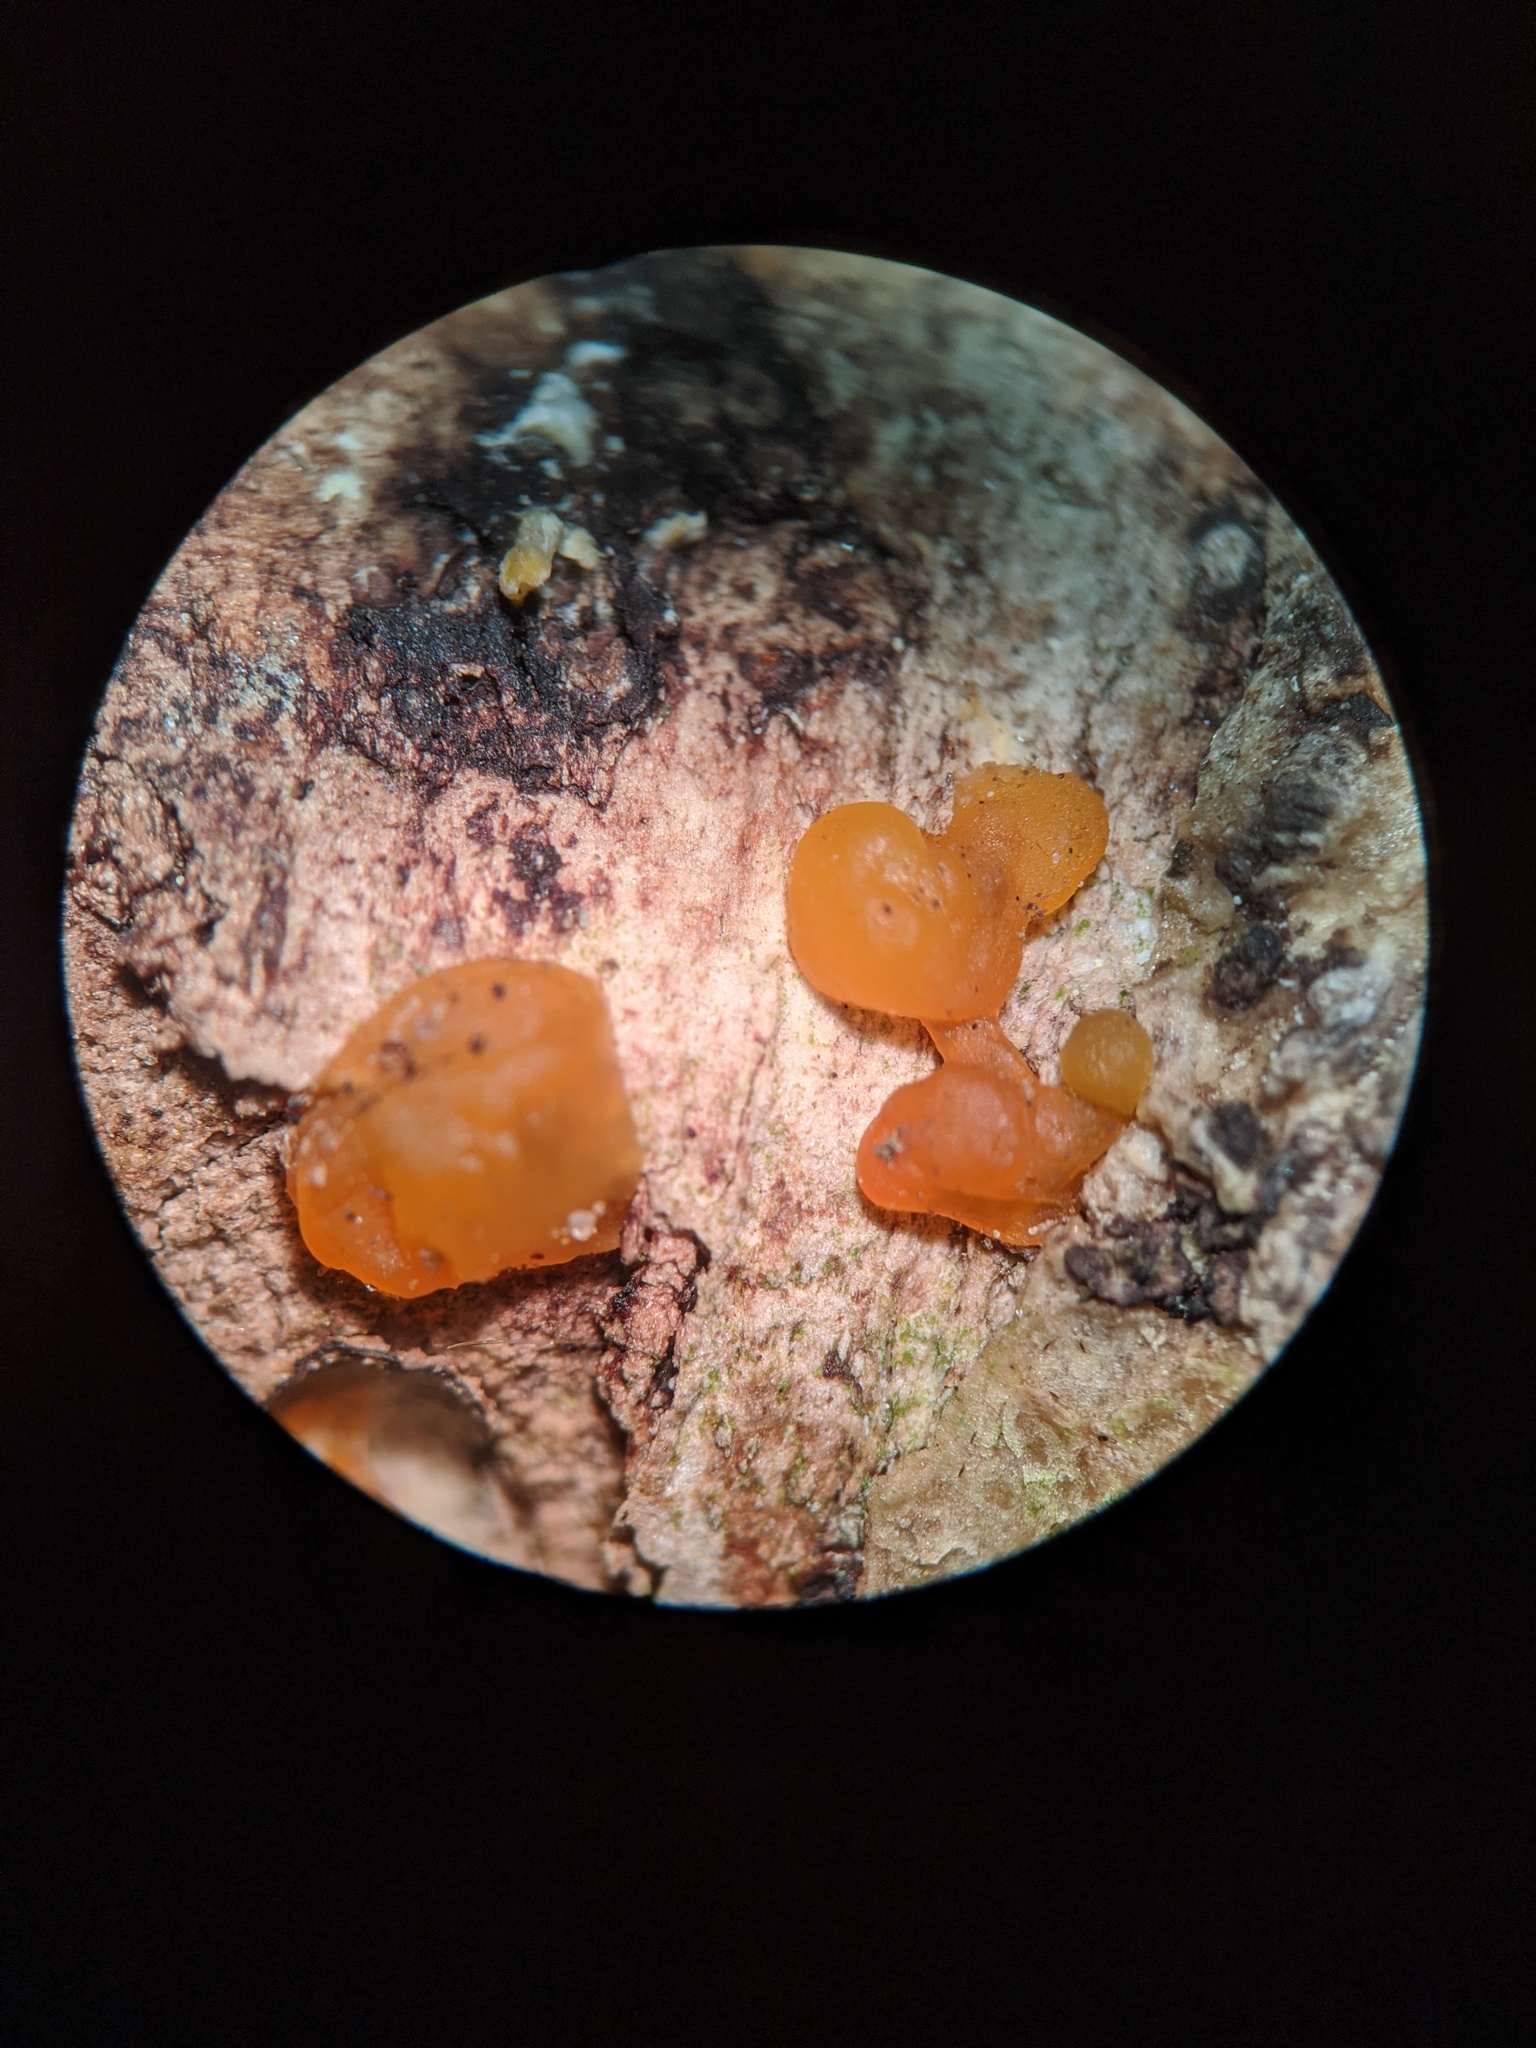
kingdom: Fungi
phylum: Basidiomycota
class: Dacrymycetes
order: Dacrymycetales
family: Dacrymycetaceae
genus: Dacrymyces
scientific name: Dacrymyces stillatus
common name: Common jelly spot
